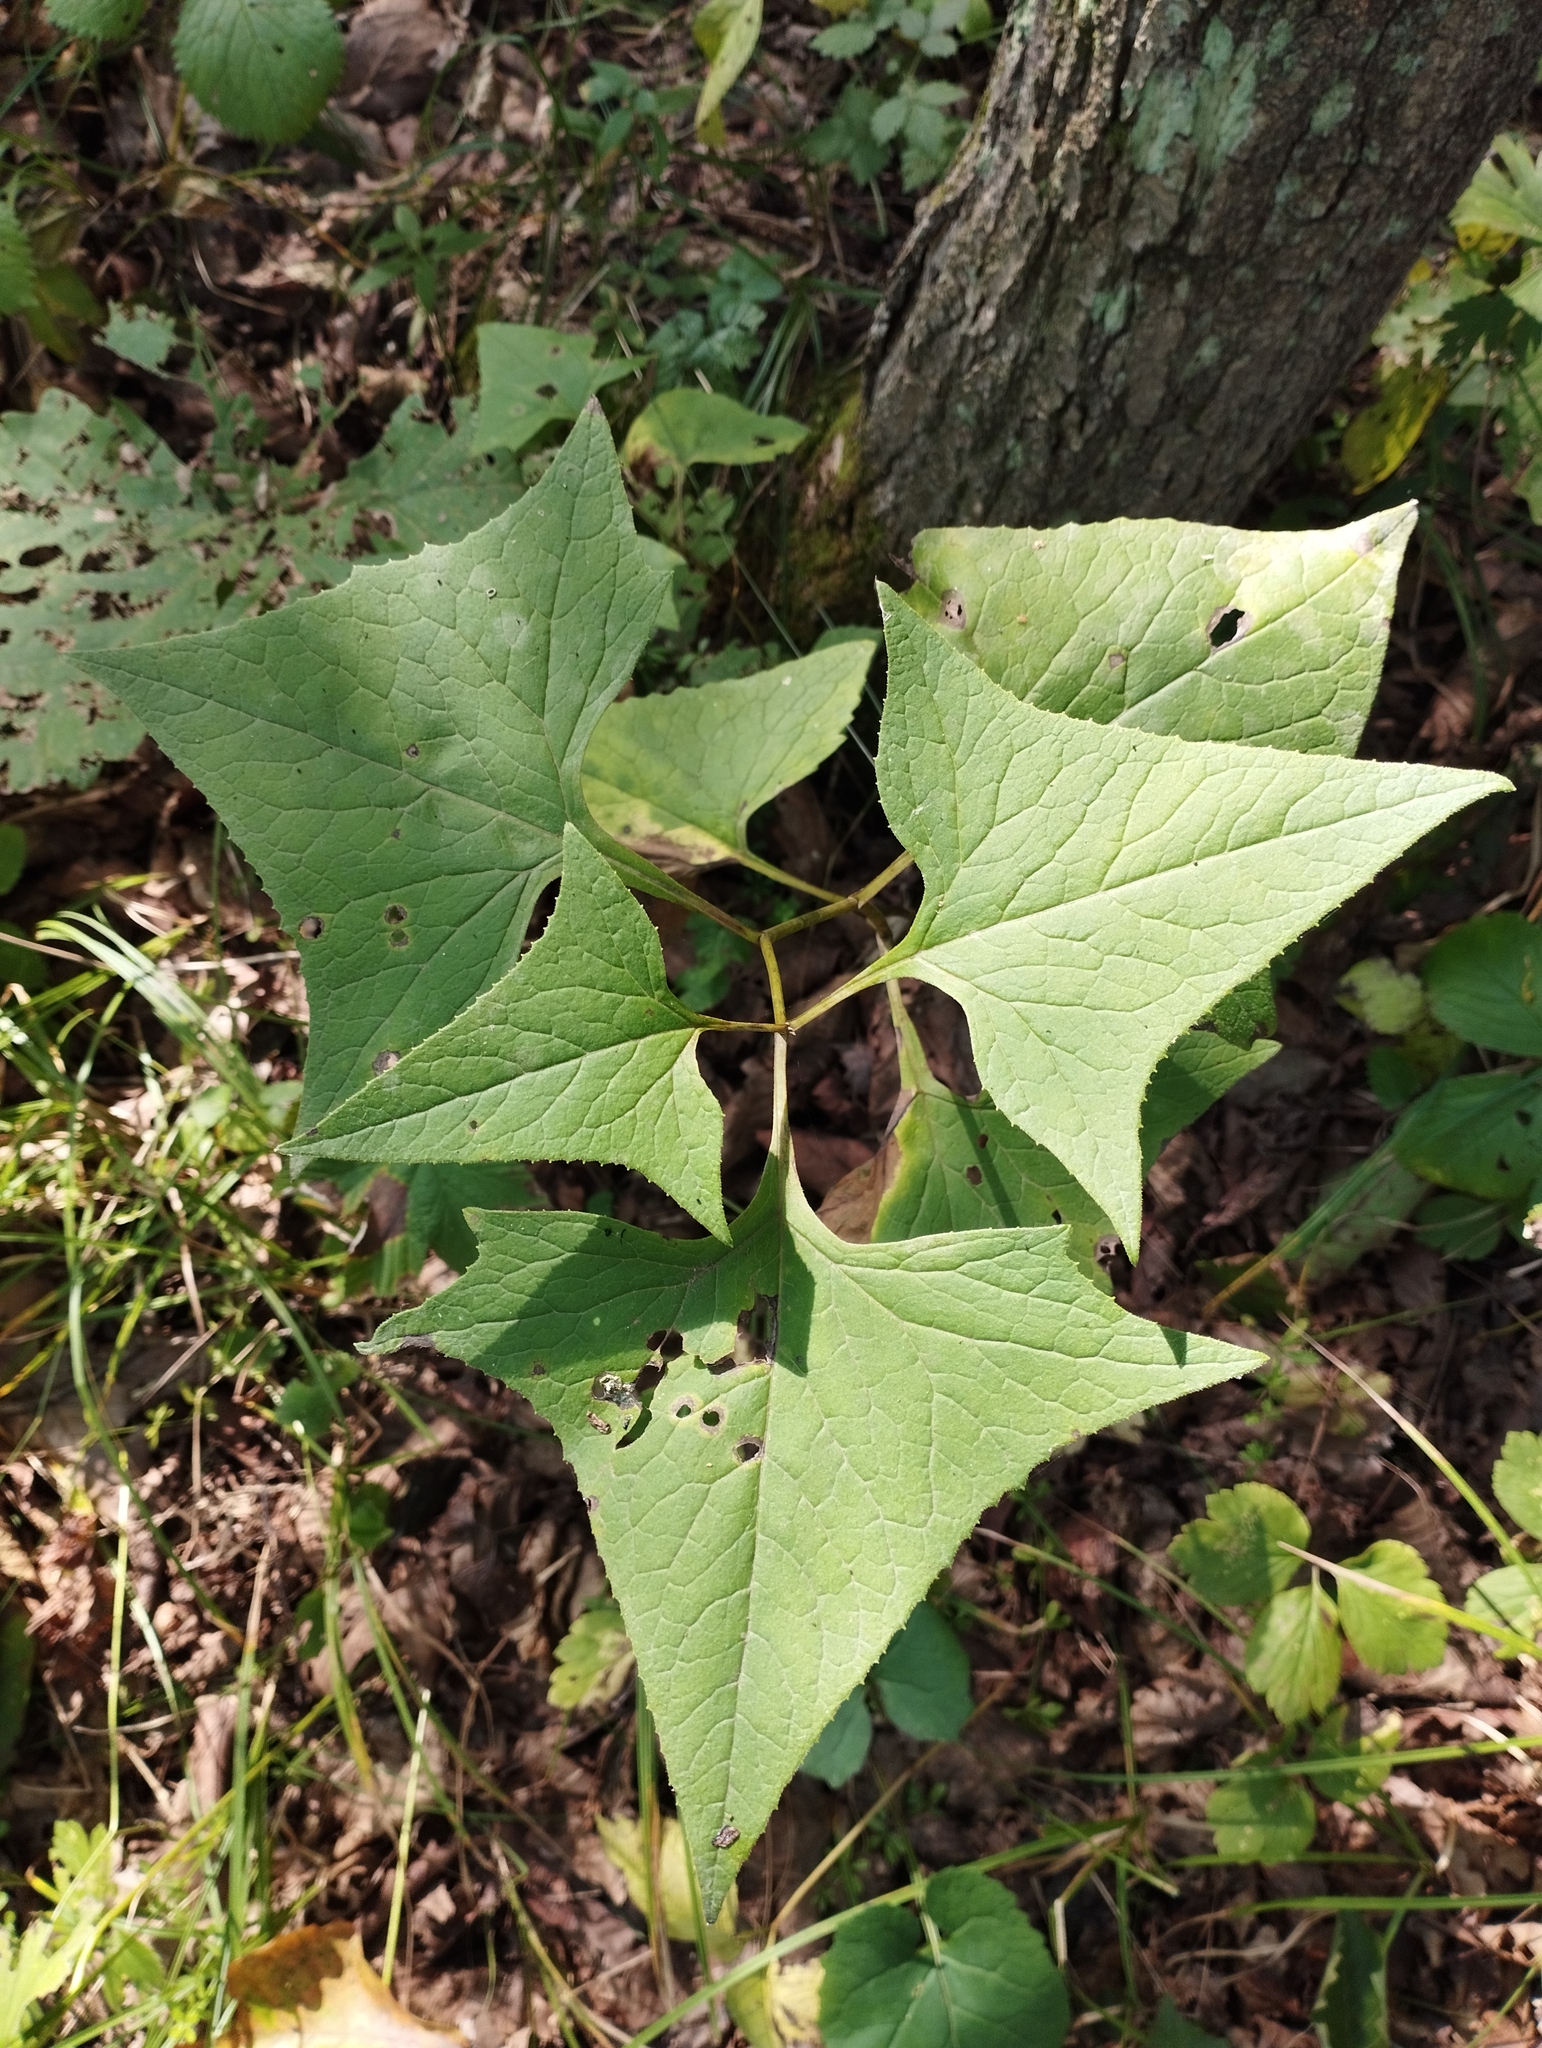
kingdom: Plantae
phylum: Tracheophyta
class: Magnoliopsida
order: Asterales
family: Asteraceae
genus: Parasenecio
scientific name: Parasenecio hastatus
